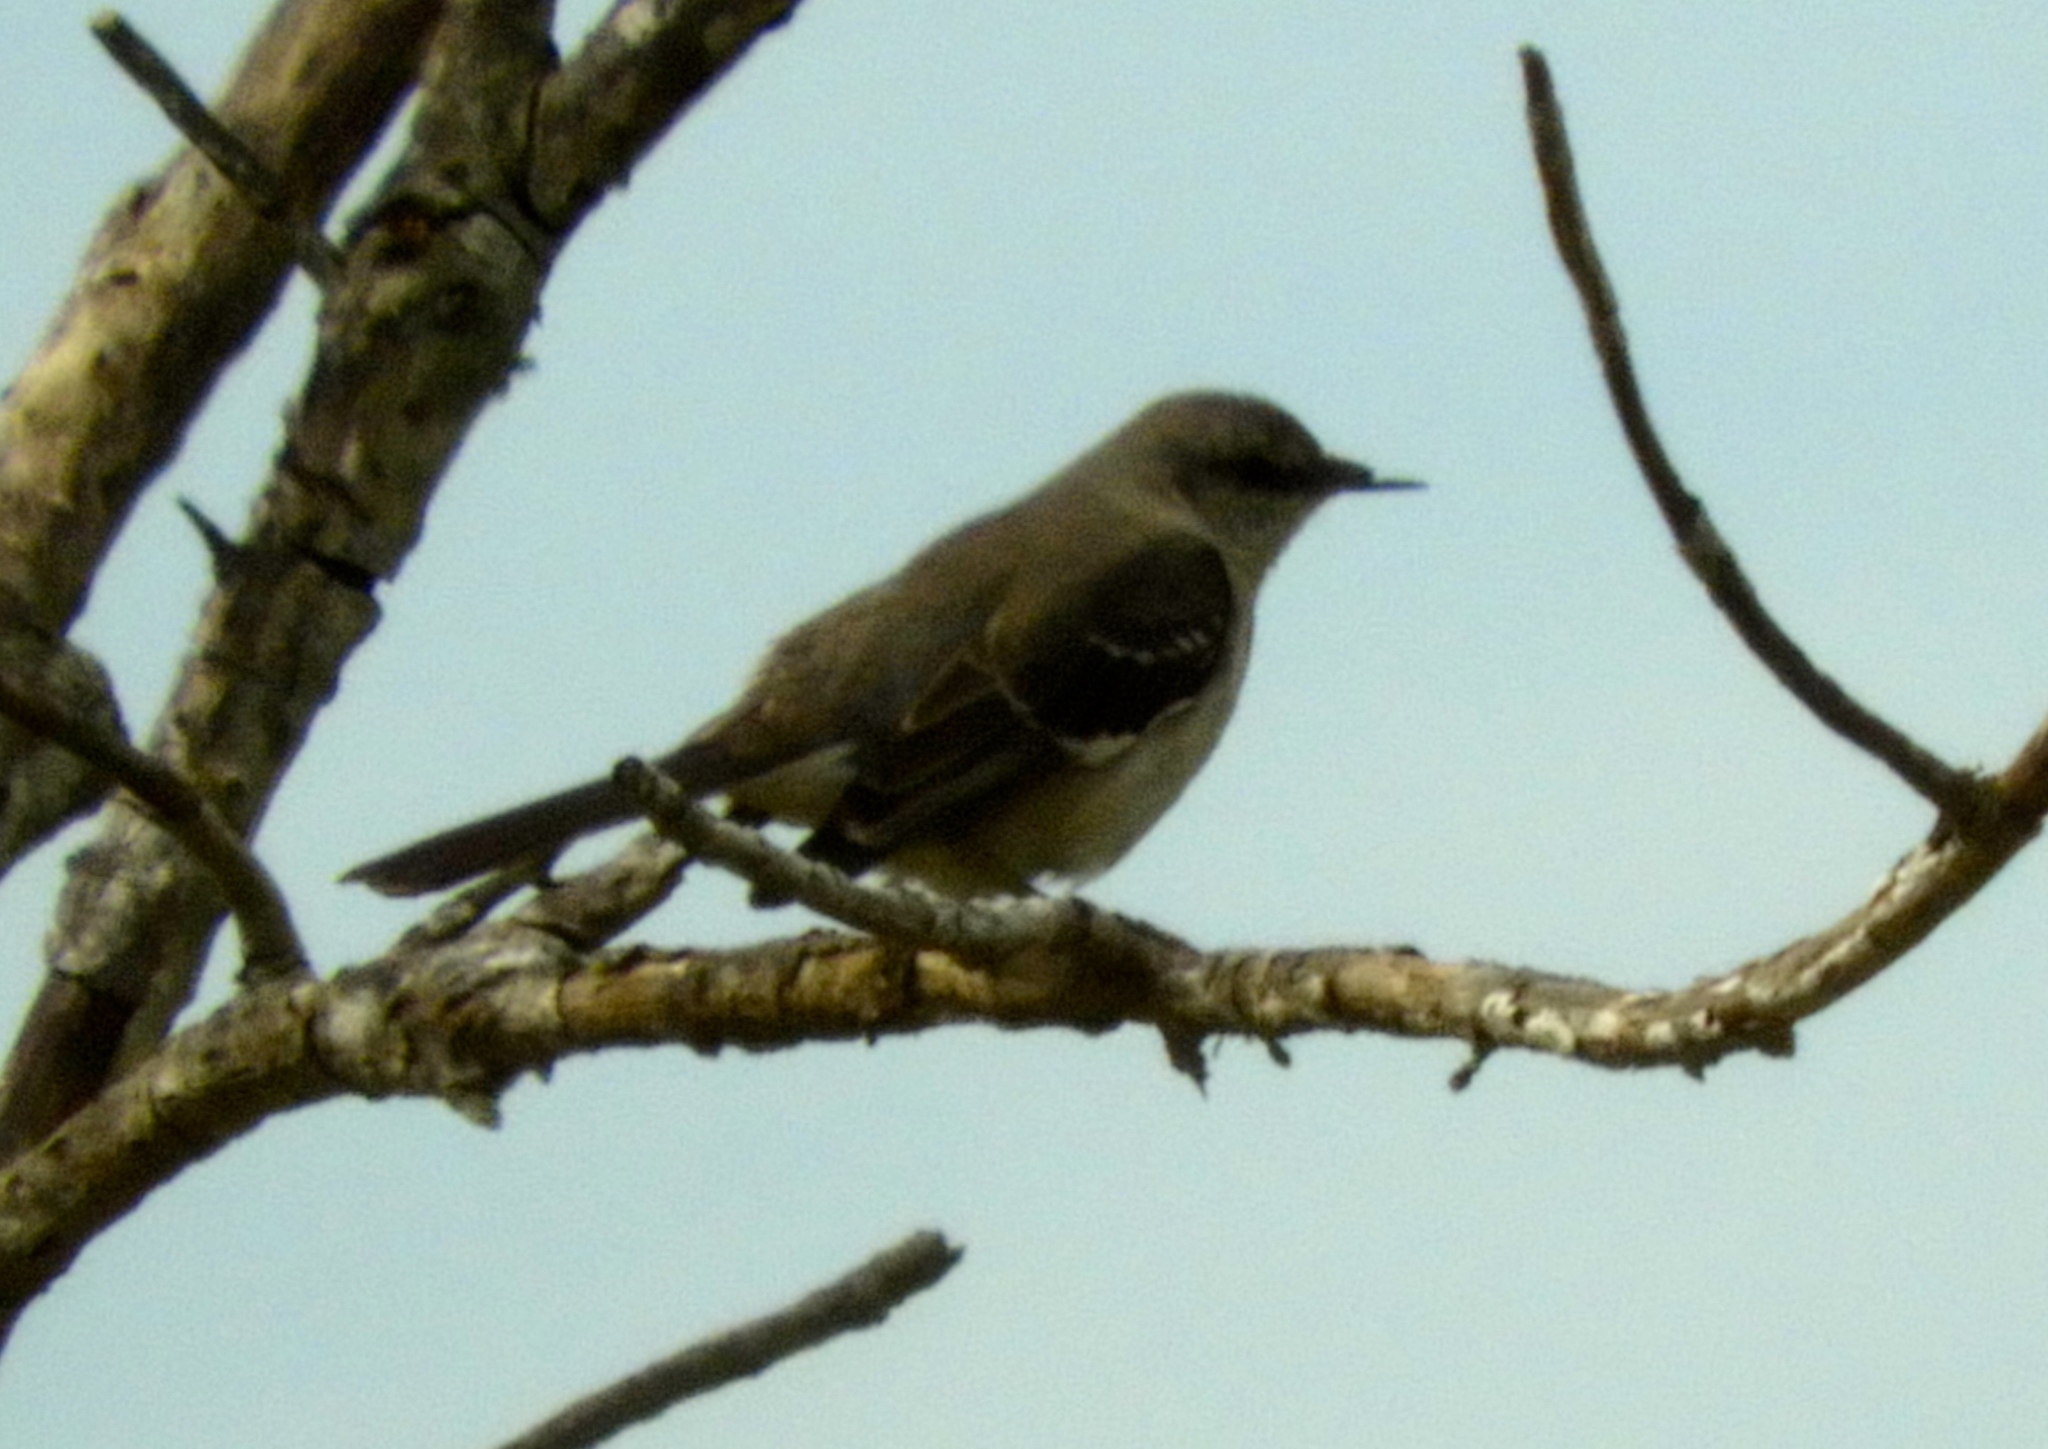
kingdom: Animalia
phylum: Chordata
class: Aves
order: Passeriformes
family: Mimidae
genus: Mimus
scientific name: Mimus polyglottos
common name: Northern mockingbird
